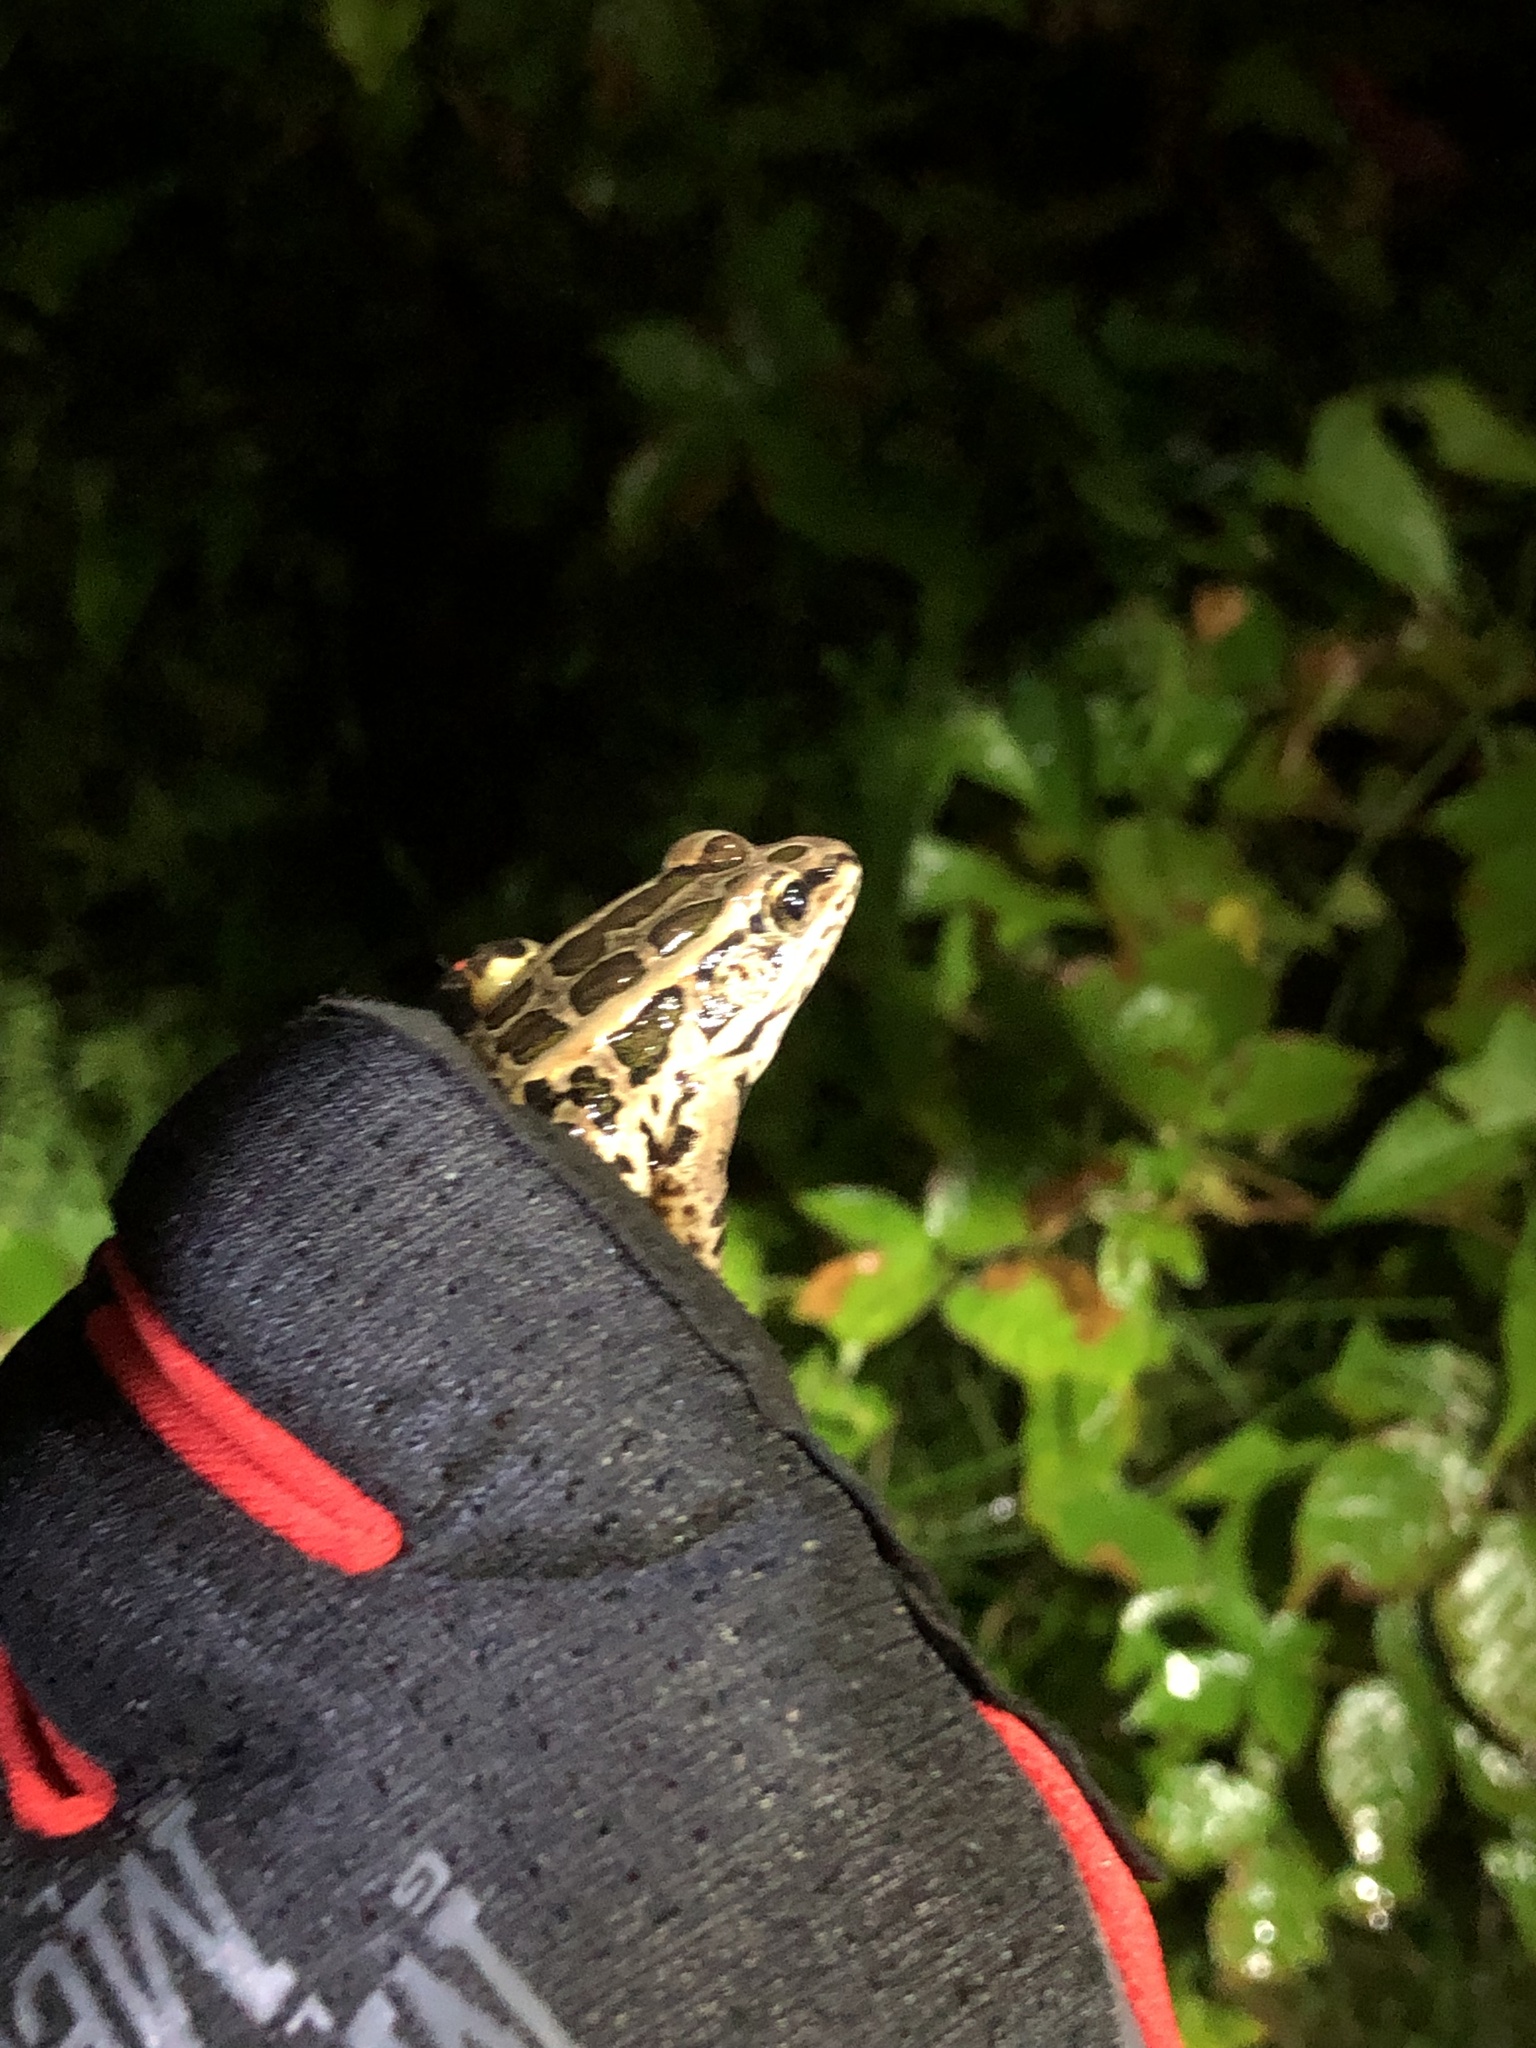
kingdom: Animalia
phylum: Chordata
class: Amphibia
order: Anura
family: Ranidae
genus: Lithobates
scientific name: Lithobates palustris
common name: Pickerel frog
